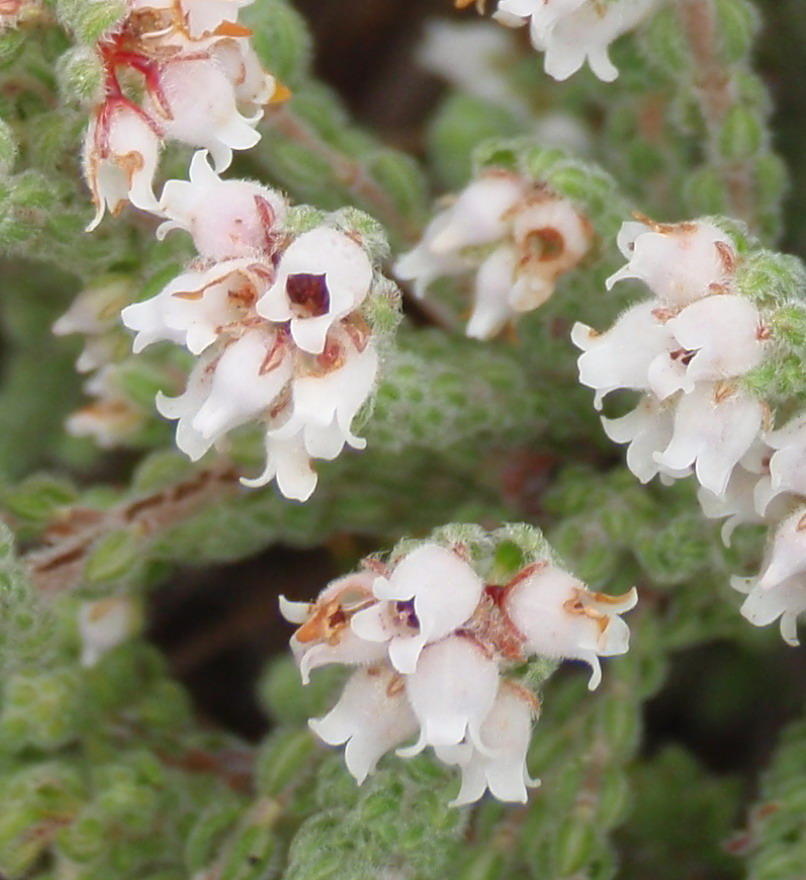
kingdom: Plantae
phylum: Tracheophyta
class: Magnoliopsida
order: Ericales
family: Ericaceae
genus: Erica
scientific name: Erica oreotragus
